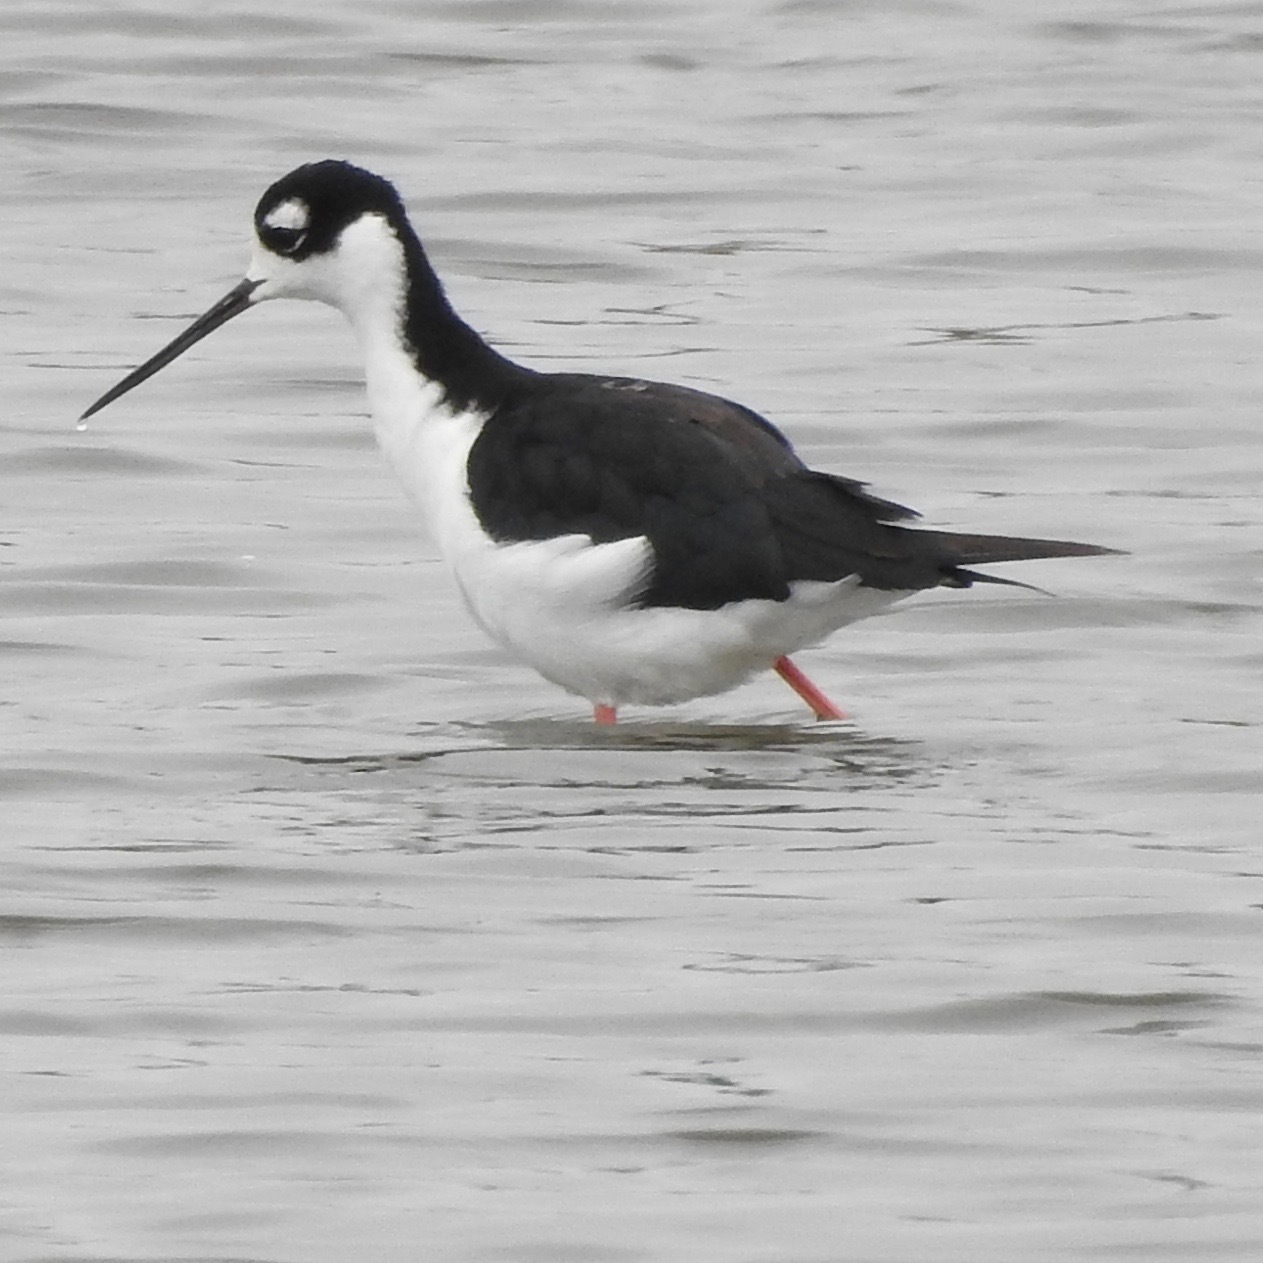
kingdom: Animalia
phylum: Chordata
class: Aves
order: Charadriiformes
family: Recurvirostridae
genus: Himantopus
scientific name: Himantopus mexicanus
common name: Black-necked stilt
